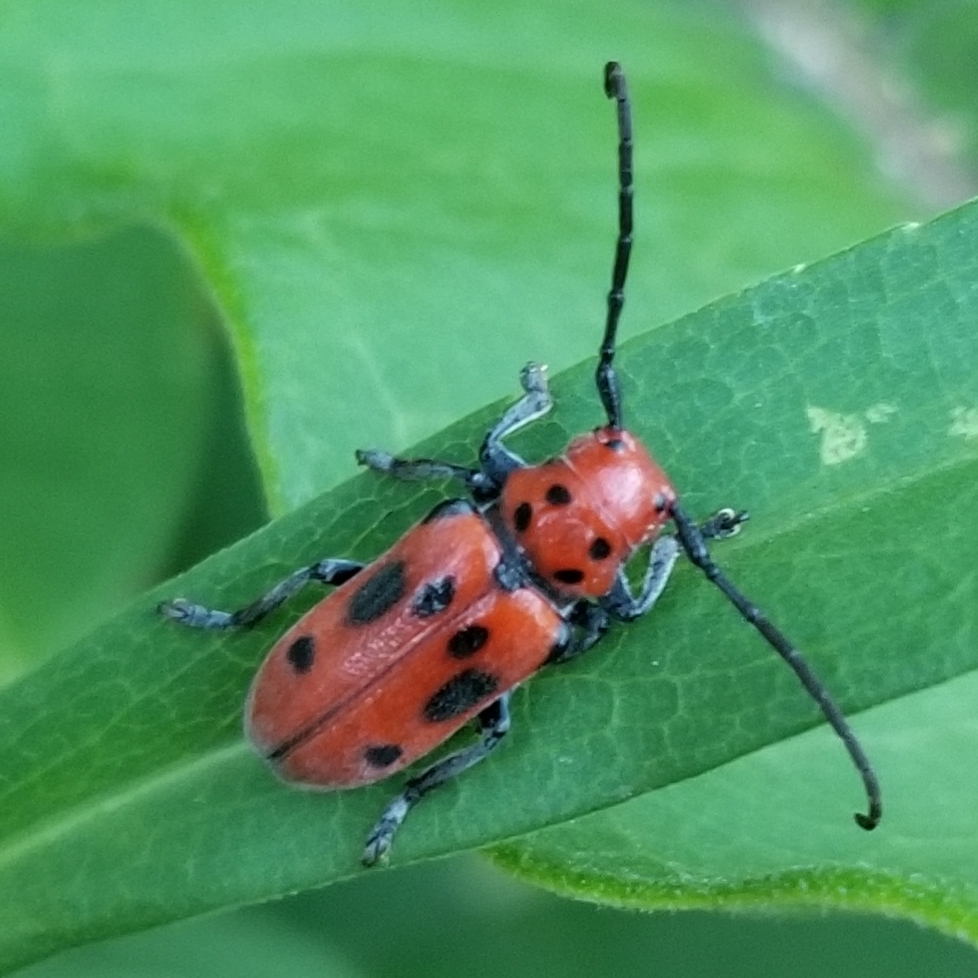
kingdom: Animalia
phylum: Arthropoda
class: Insecta
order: Coleoptera
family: Cerambycidae
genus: Tetraopes
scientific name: Tetraopes tetrophthalmus
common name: Red milkweed beetle
